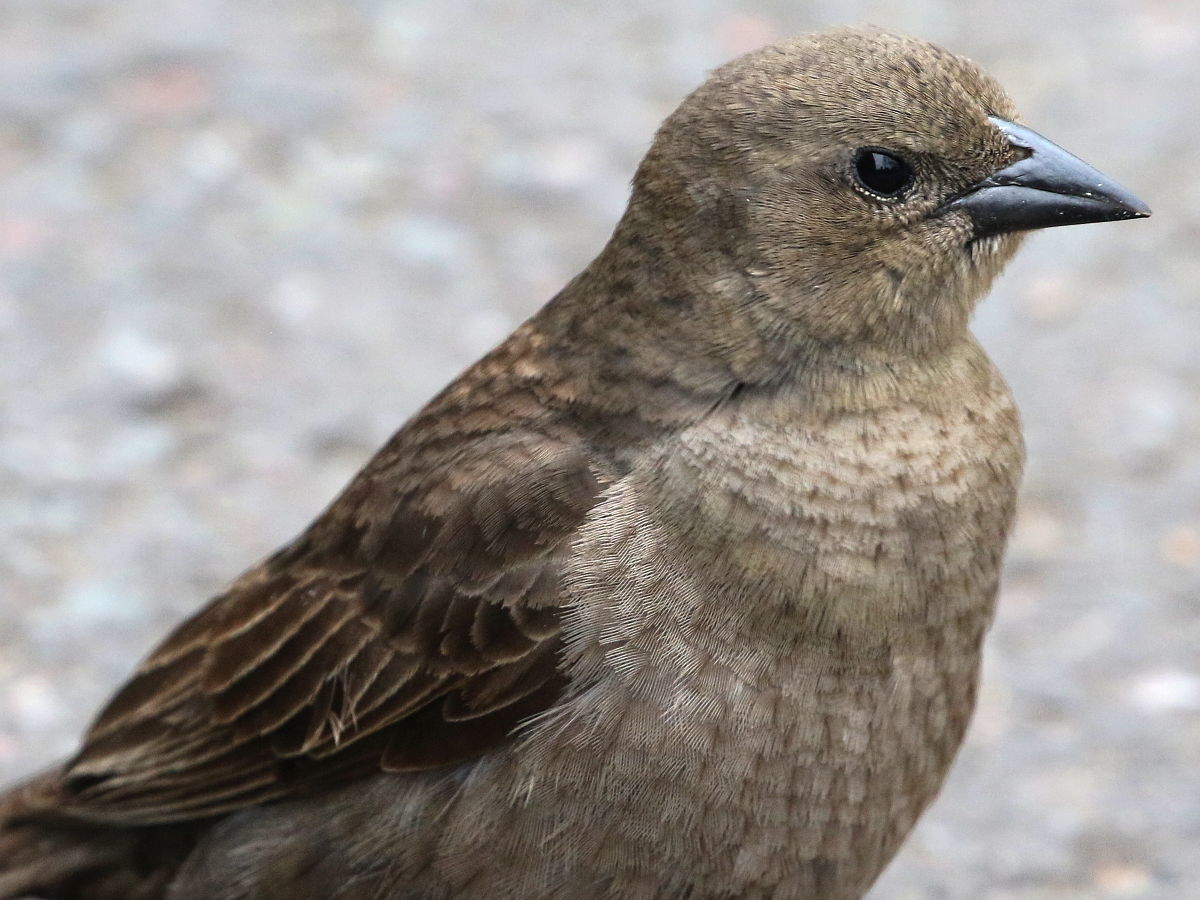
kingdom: Animalia
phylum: Chordata
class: Aves
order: Passeriformes
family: Icteridae
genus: Molothrus
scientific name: Molothrus bonariensis
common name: Shiny cowbird
